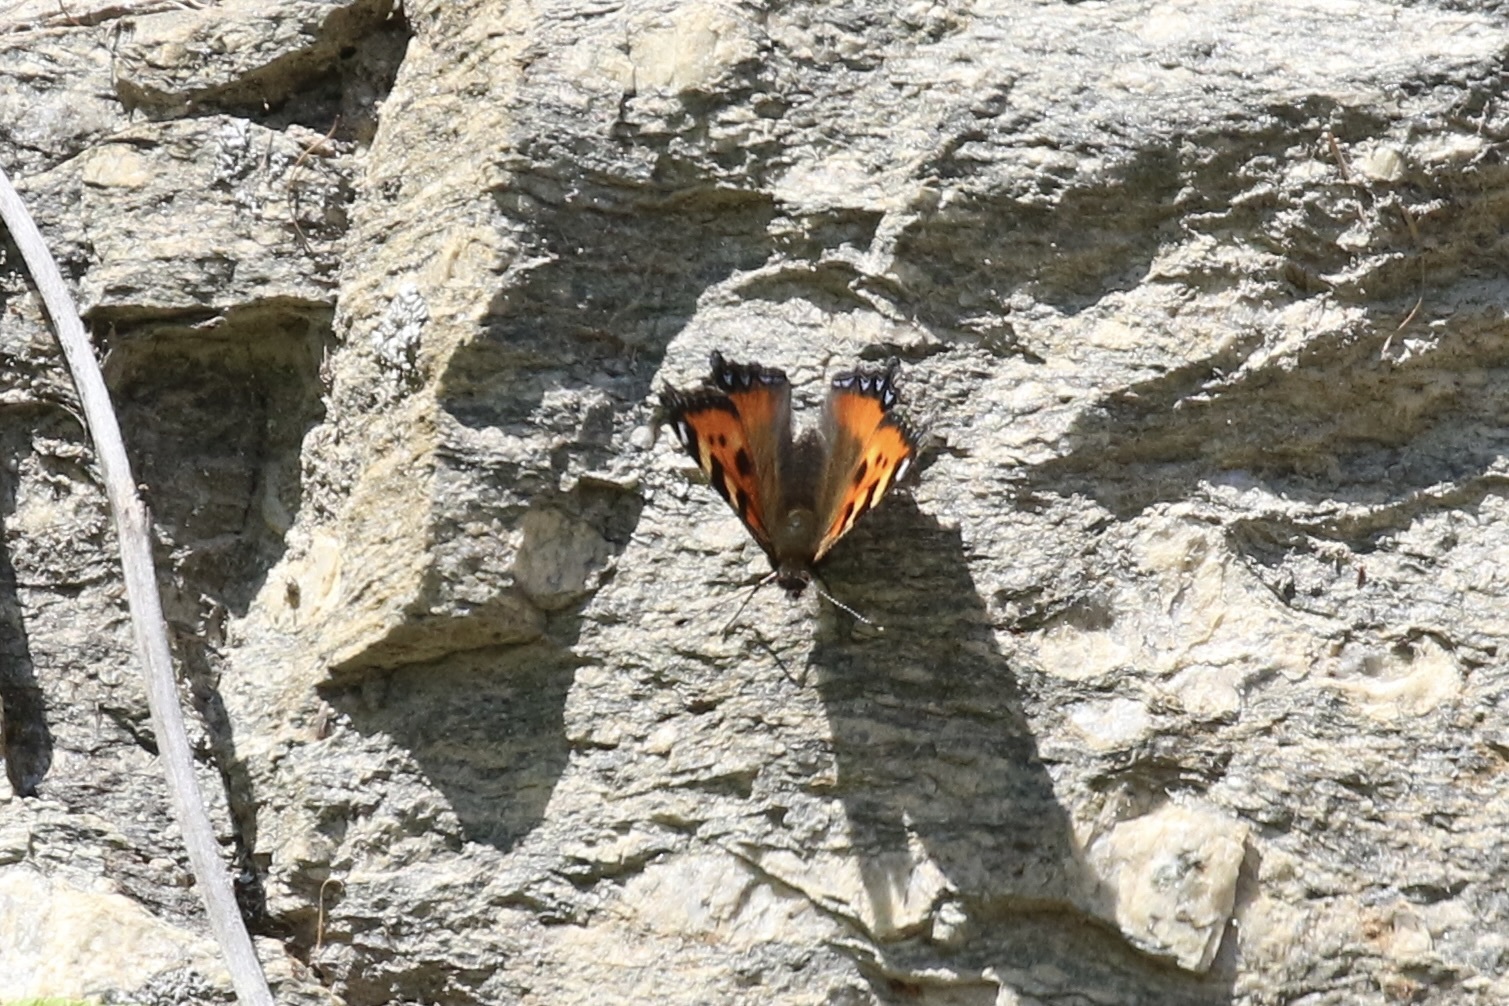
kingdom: Animalia
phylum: Arthropoda
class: Insecta
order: Lepidoptera
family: Nymphalidae
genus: Aglais
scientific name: Aglais urticae
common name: Small tortoiseshell
